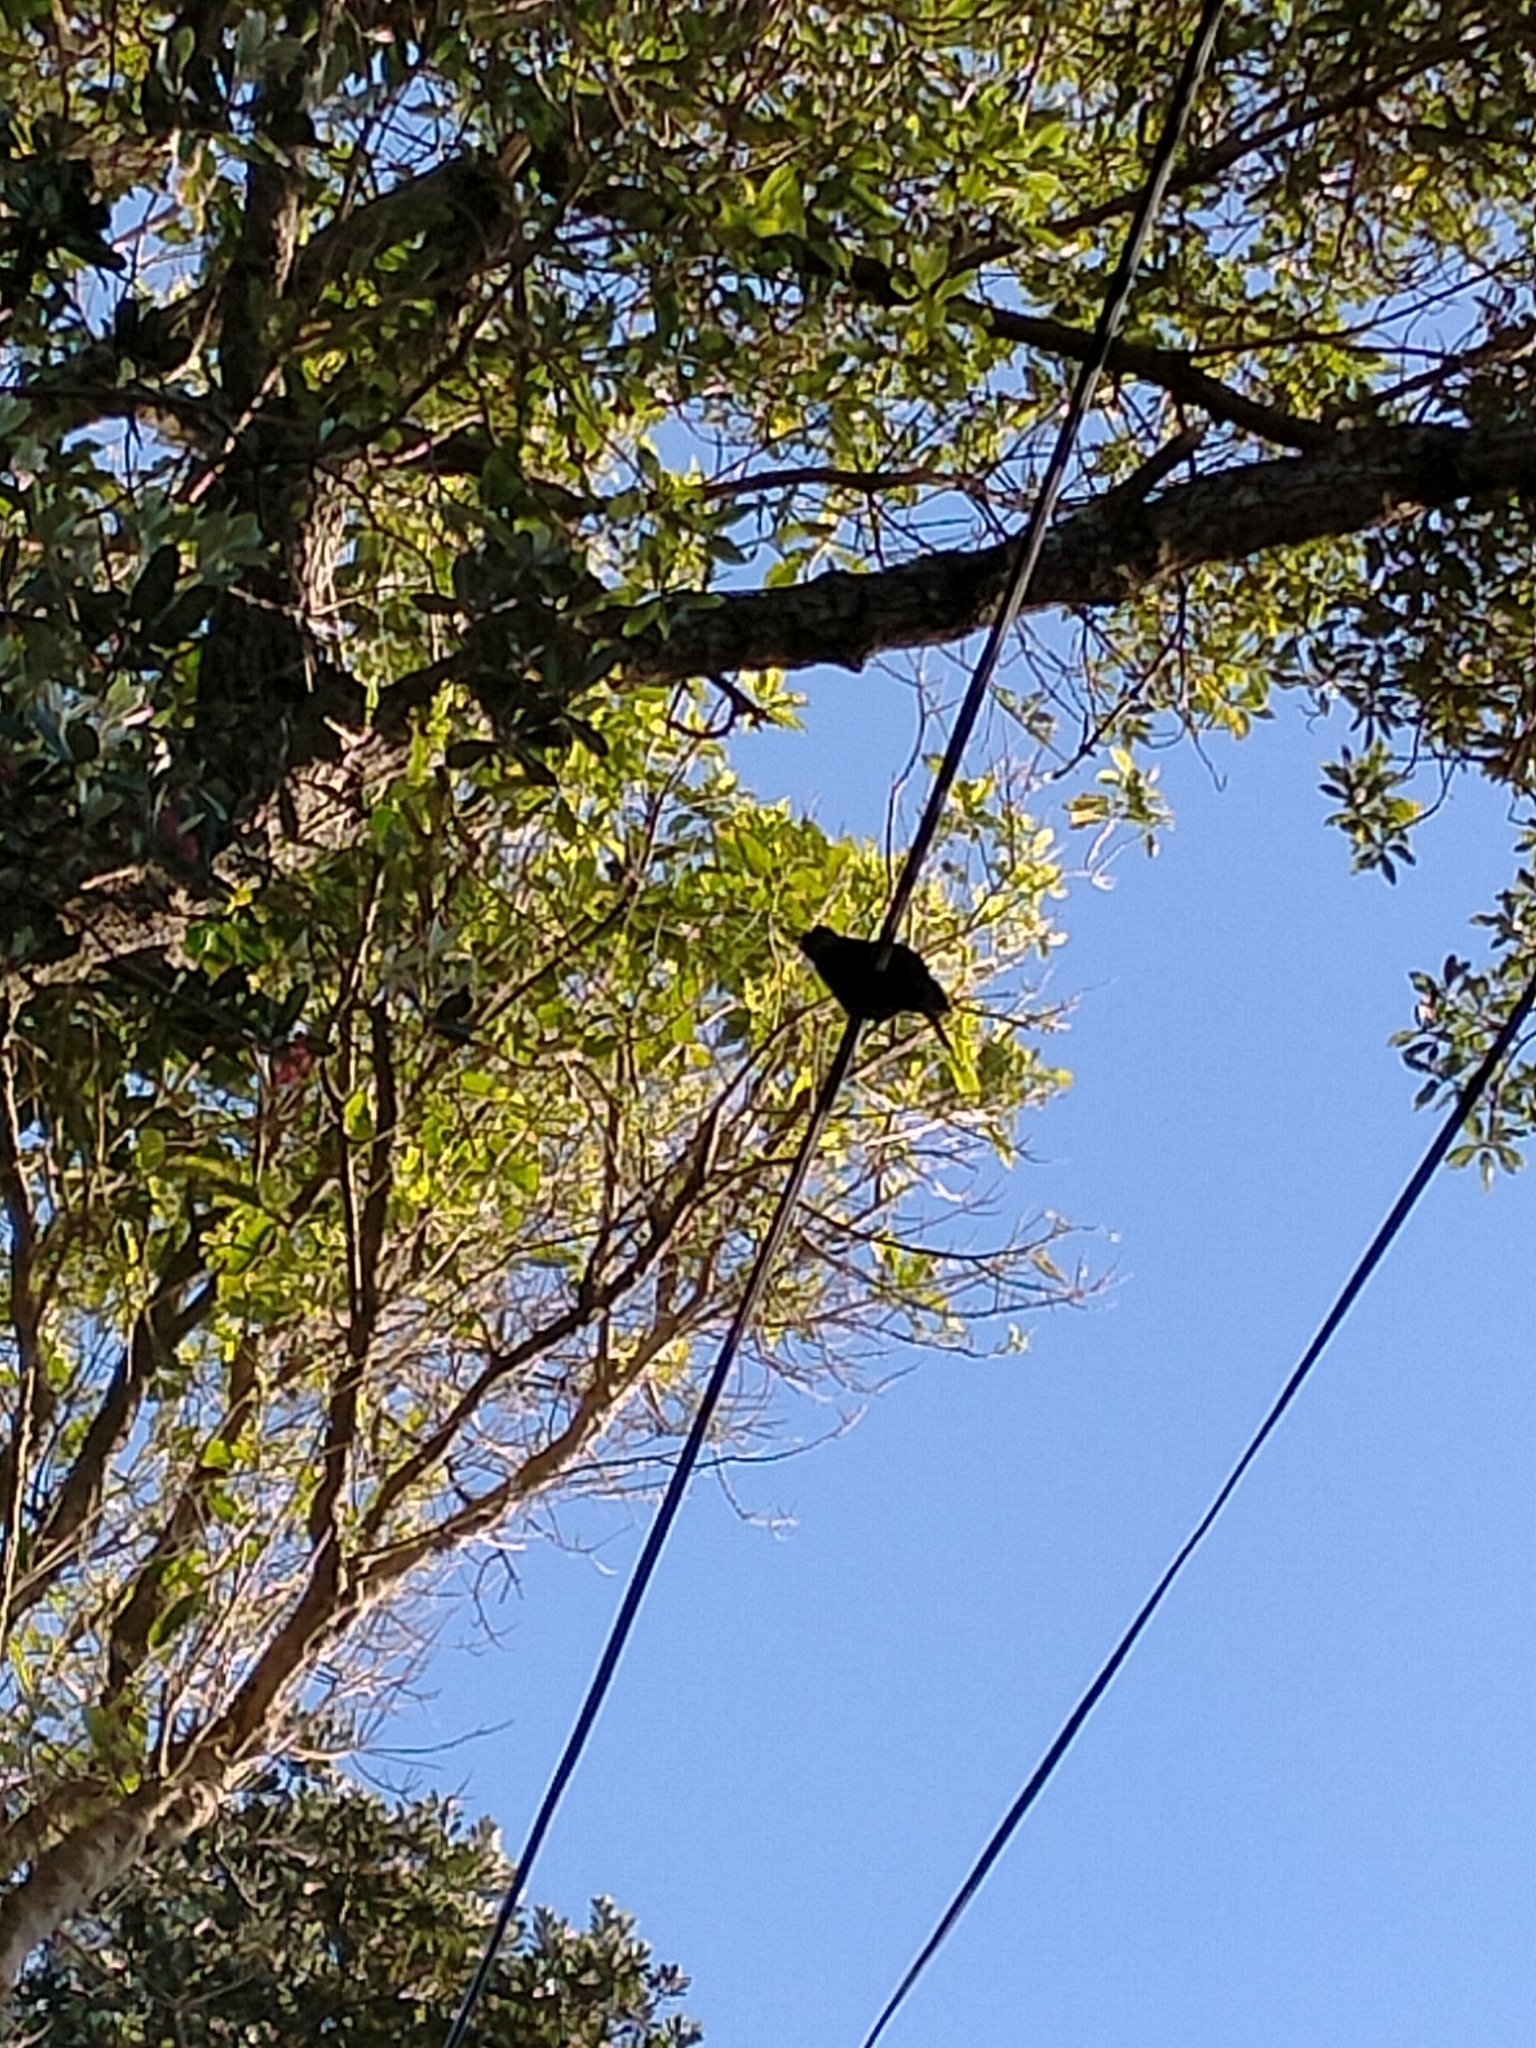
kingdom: Animalia
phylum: Chordata
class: Aves
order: Passeriformes
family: Meliphagidae
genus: Prosthemadera
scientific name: Prosthemadera novaeseelandiae
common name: Tui
